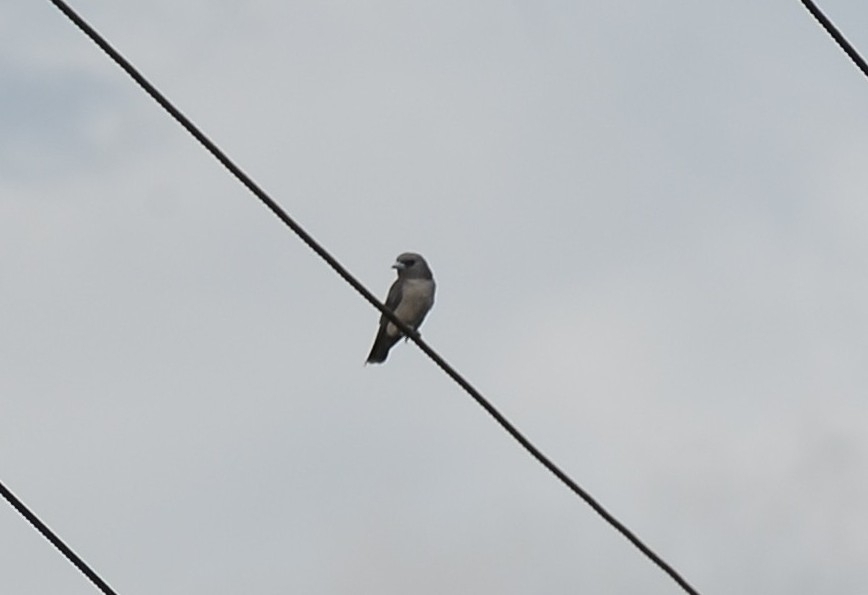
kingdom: Animalia
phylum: Chordata
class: Aves
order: Passeriformes
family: Artamidae
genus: Artamus
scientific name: Artamus fuscus
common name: Ashy woodswallow
